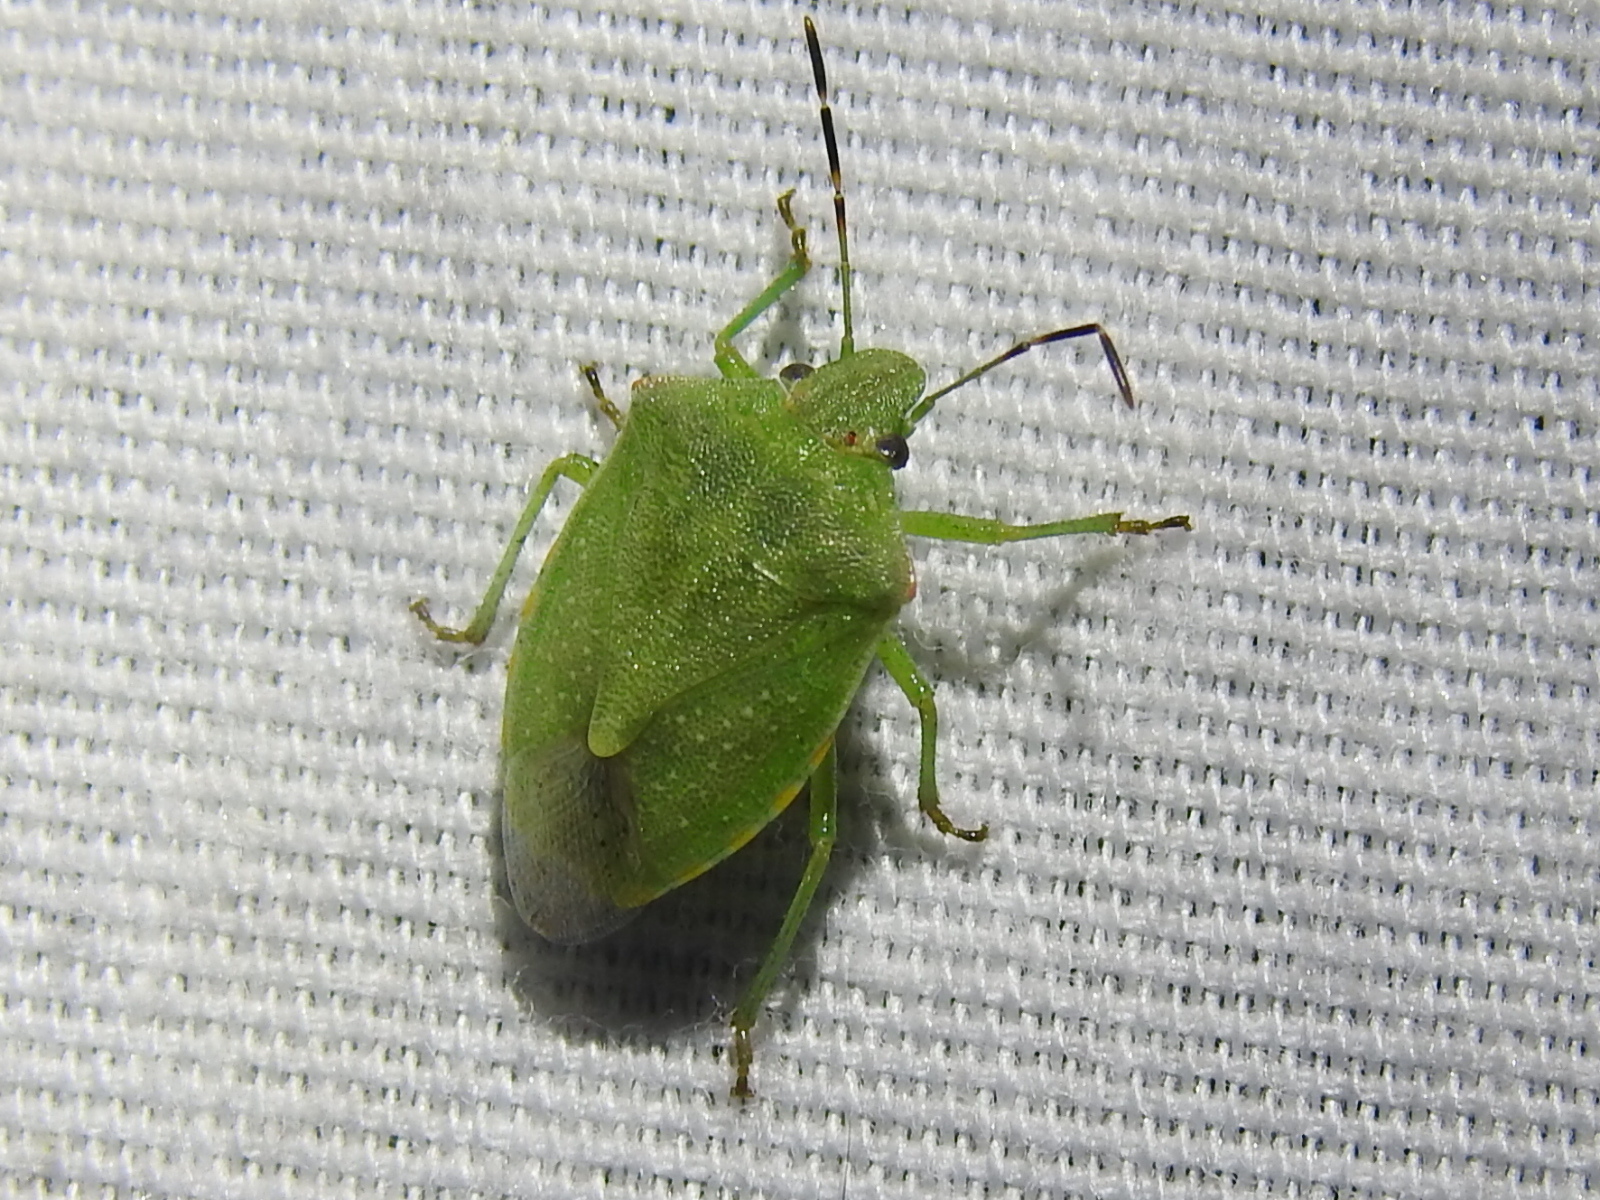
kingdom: Animalia
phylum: Arthropoda
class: Insecta
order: Hemiptera
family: Pentatomidae
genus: Thyanta
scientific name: Thyanta accerra
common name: Stink bug
